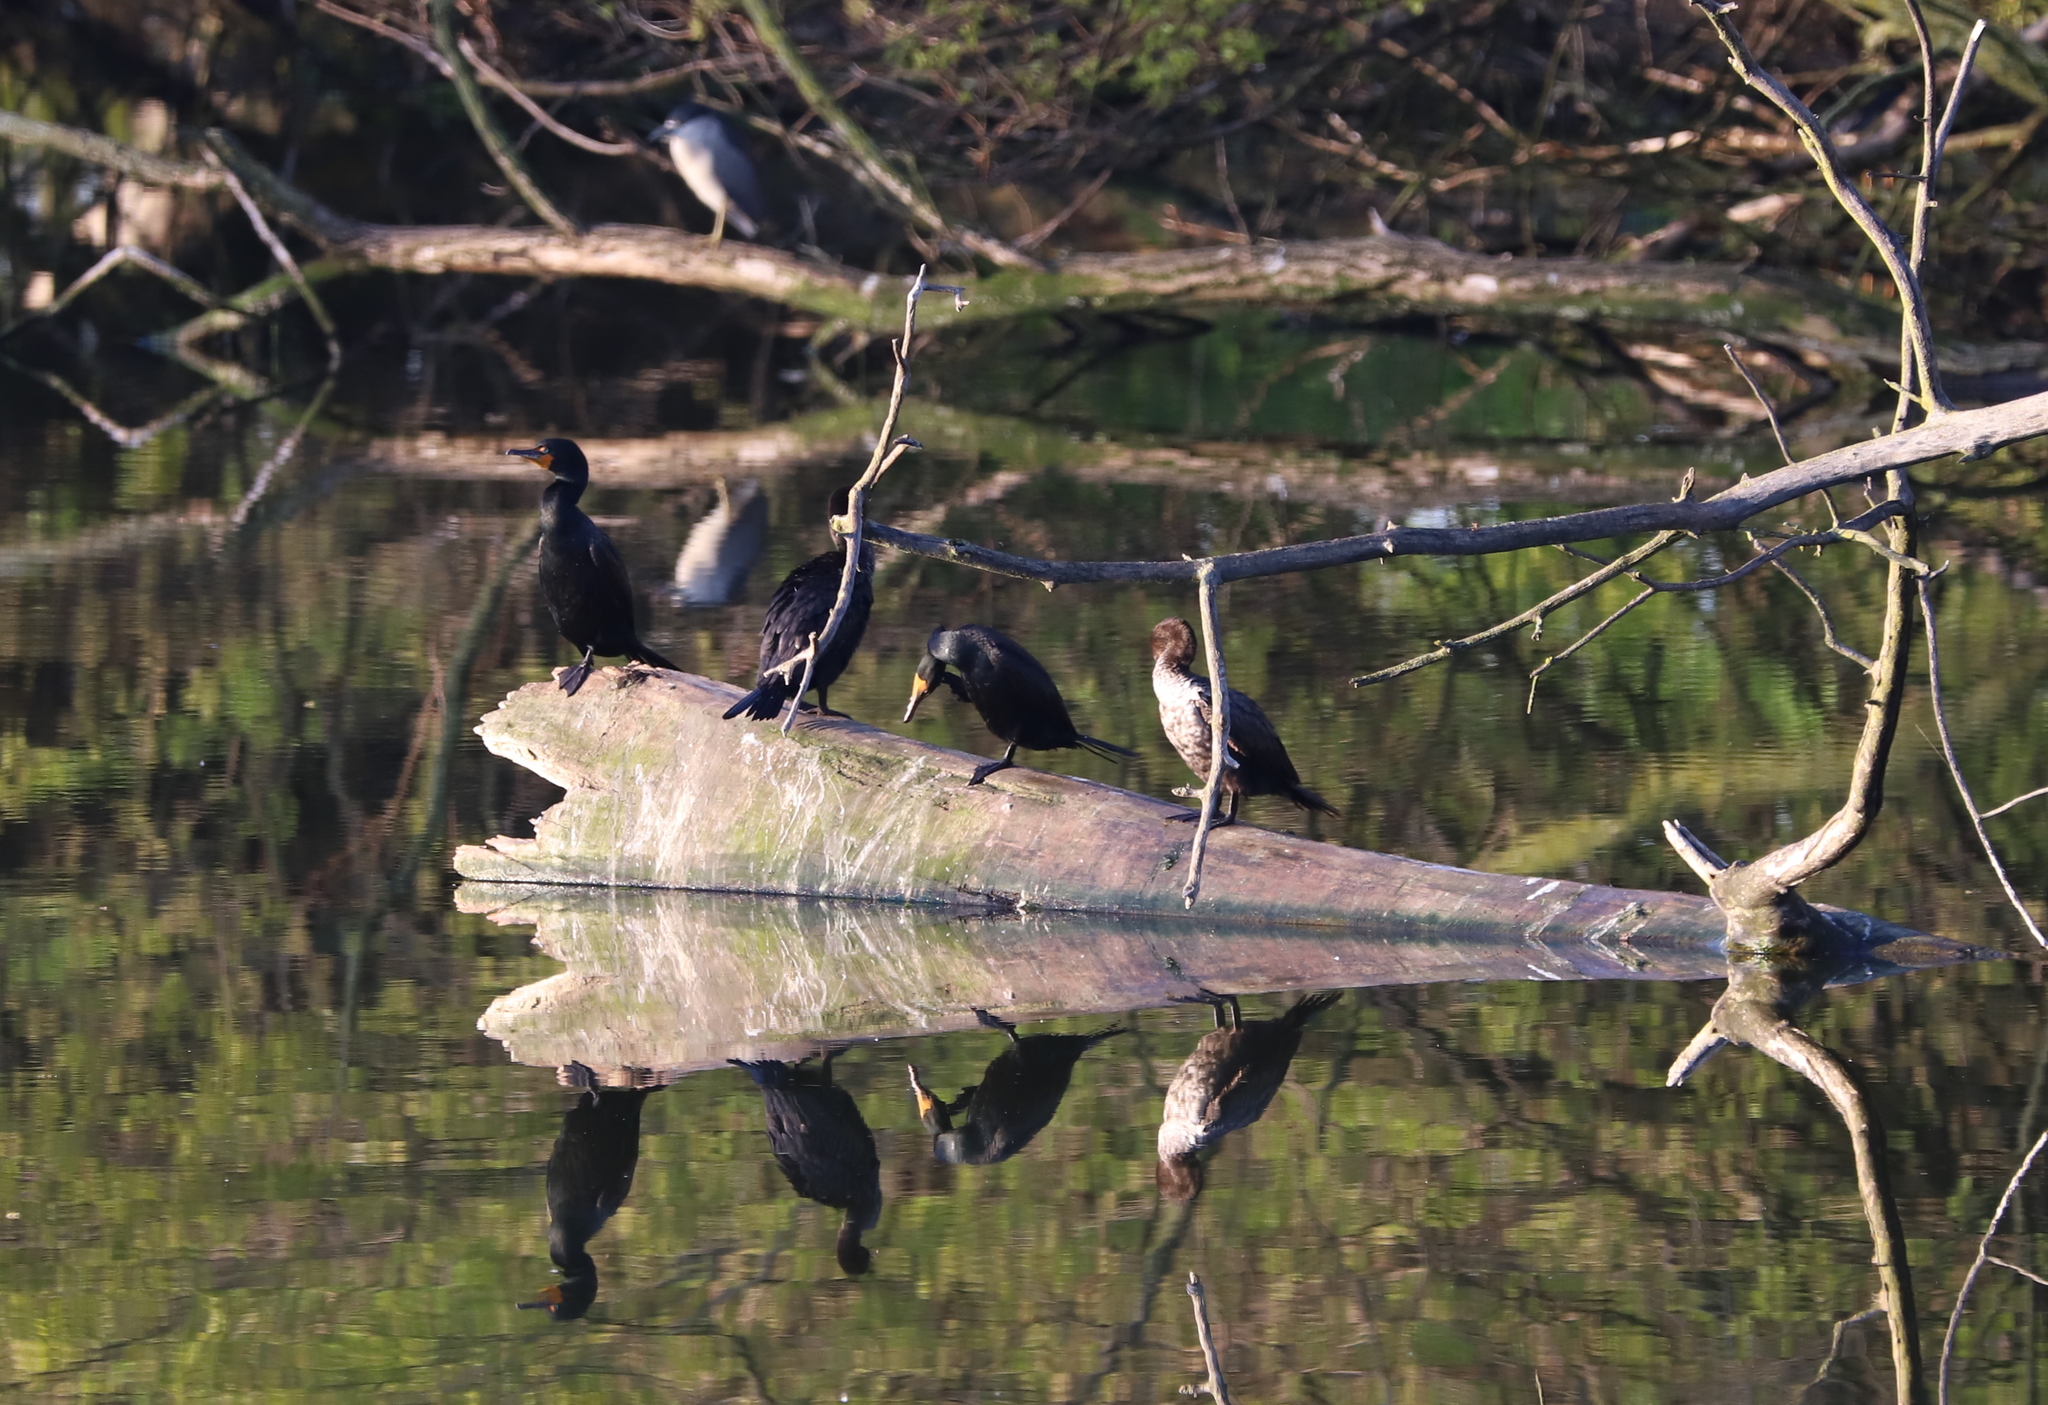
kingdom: Animalia
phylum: Chordata
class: Aves
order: Suliformes
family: Phalacrocoracidae
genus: Phalacrocorax
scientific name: Phalacrocorax auritus
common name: Double-crested cormorant
